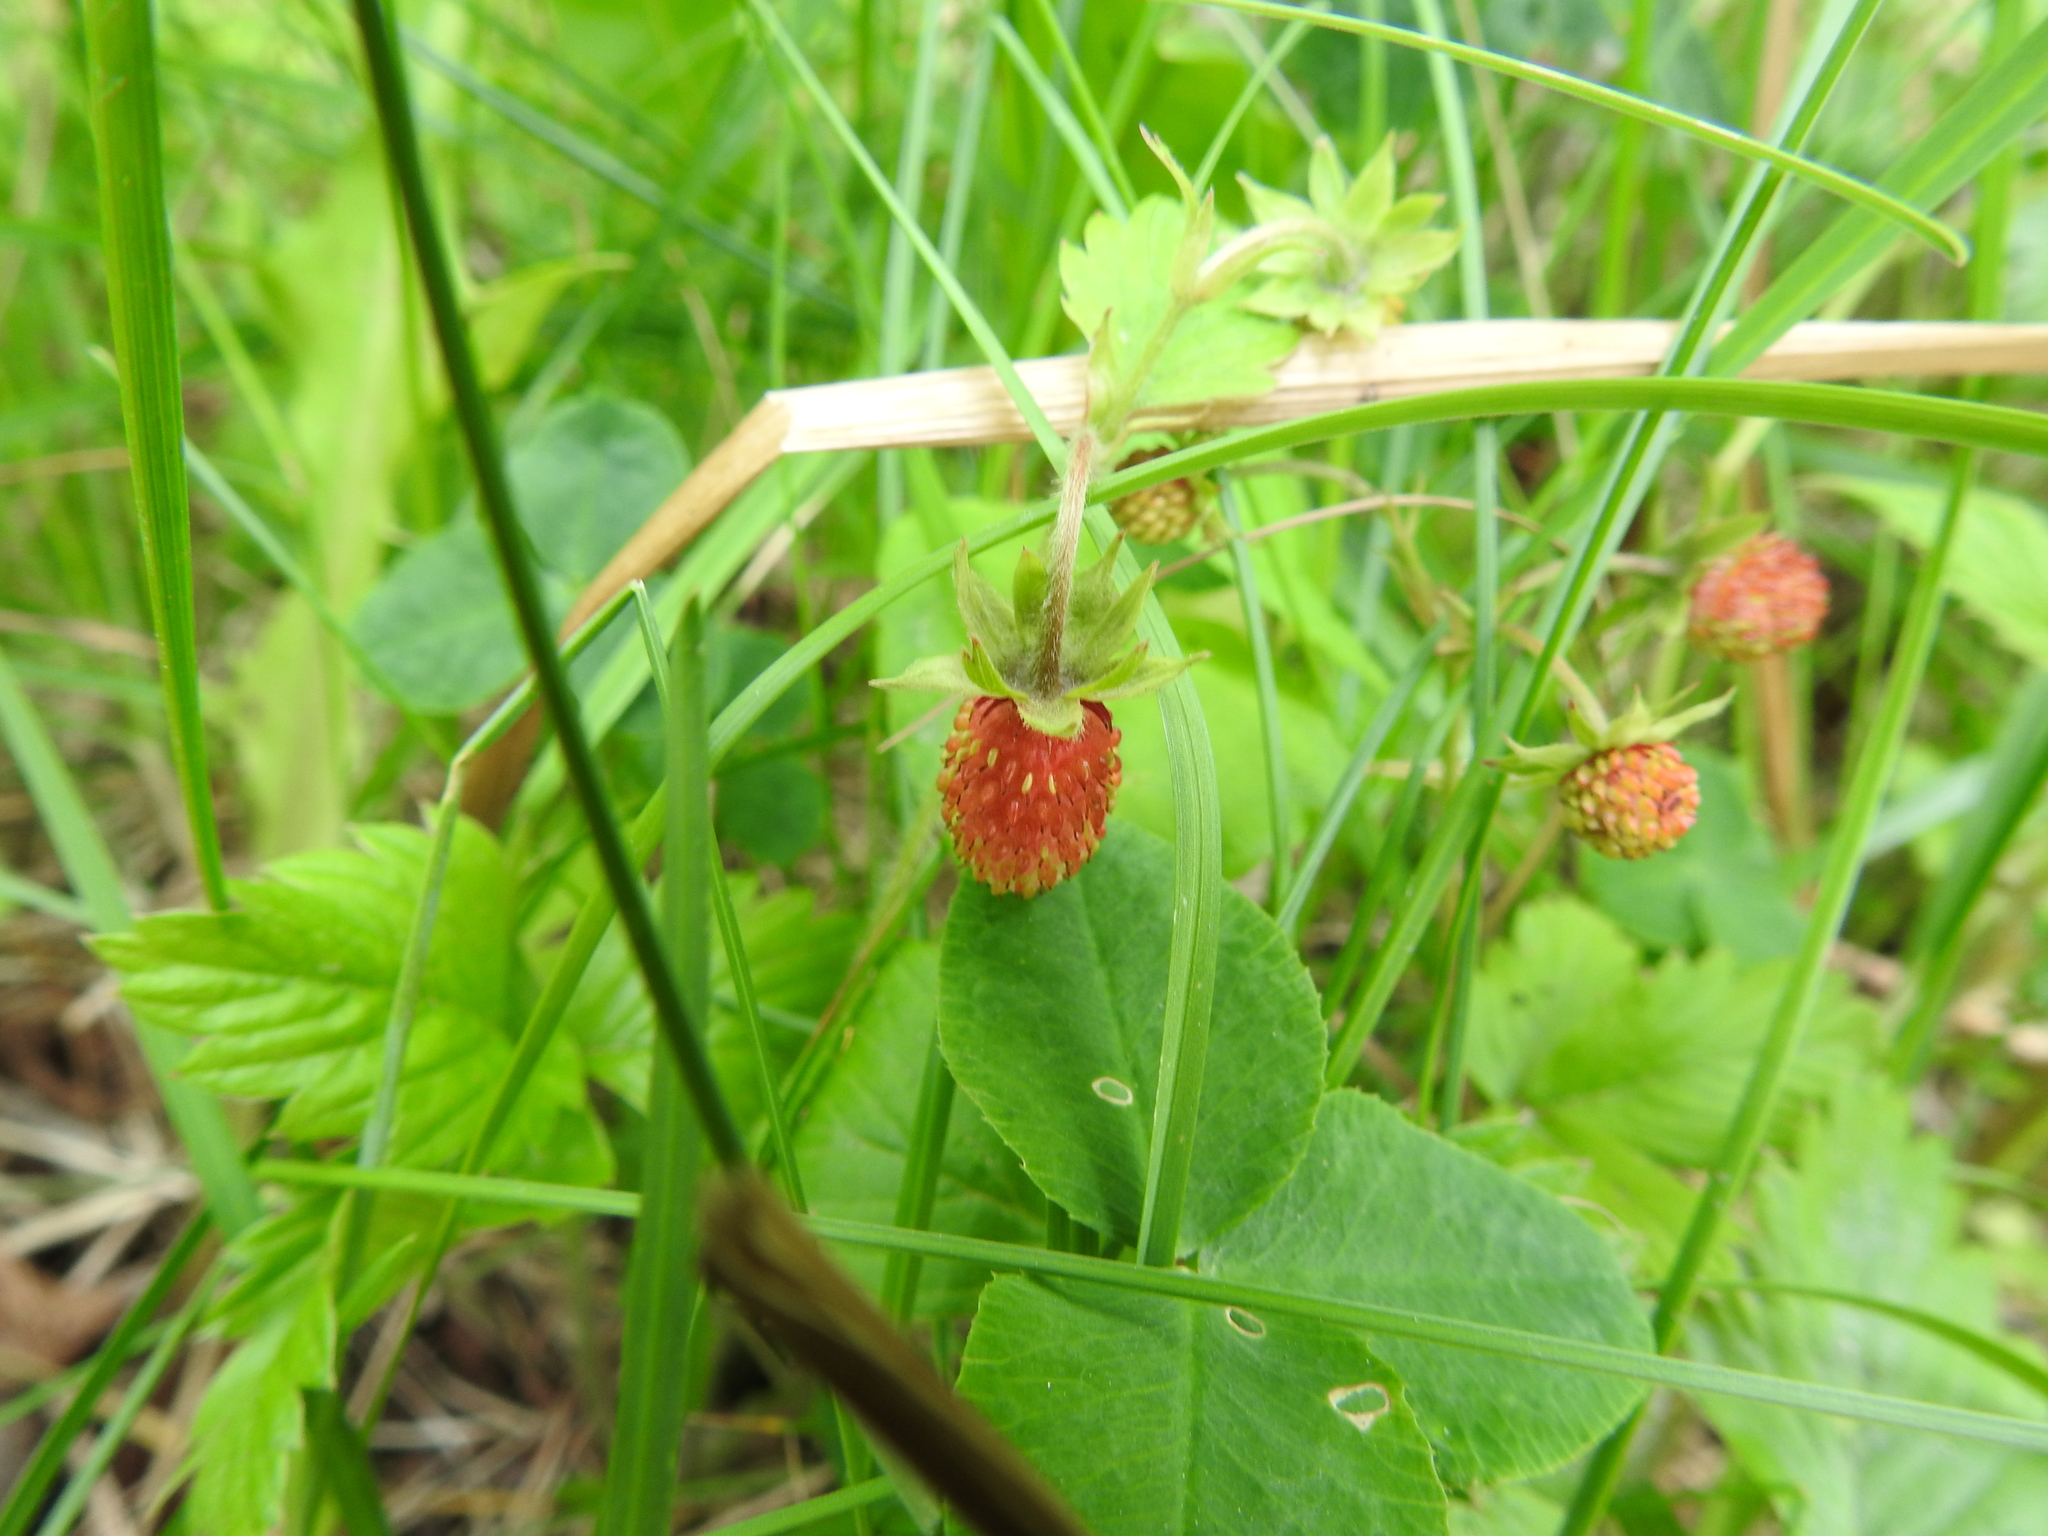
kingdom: Plantae
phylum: Tracheophyta
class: Magnoliopsida
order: Rosales
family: Rosaceae
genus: Fragaria
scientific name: Fragaria vesca
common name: Wild strawberry
